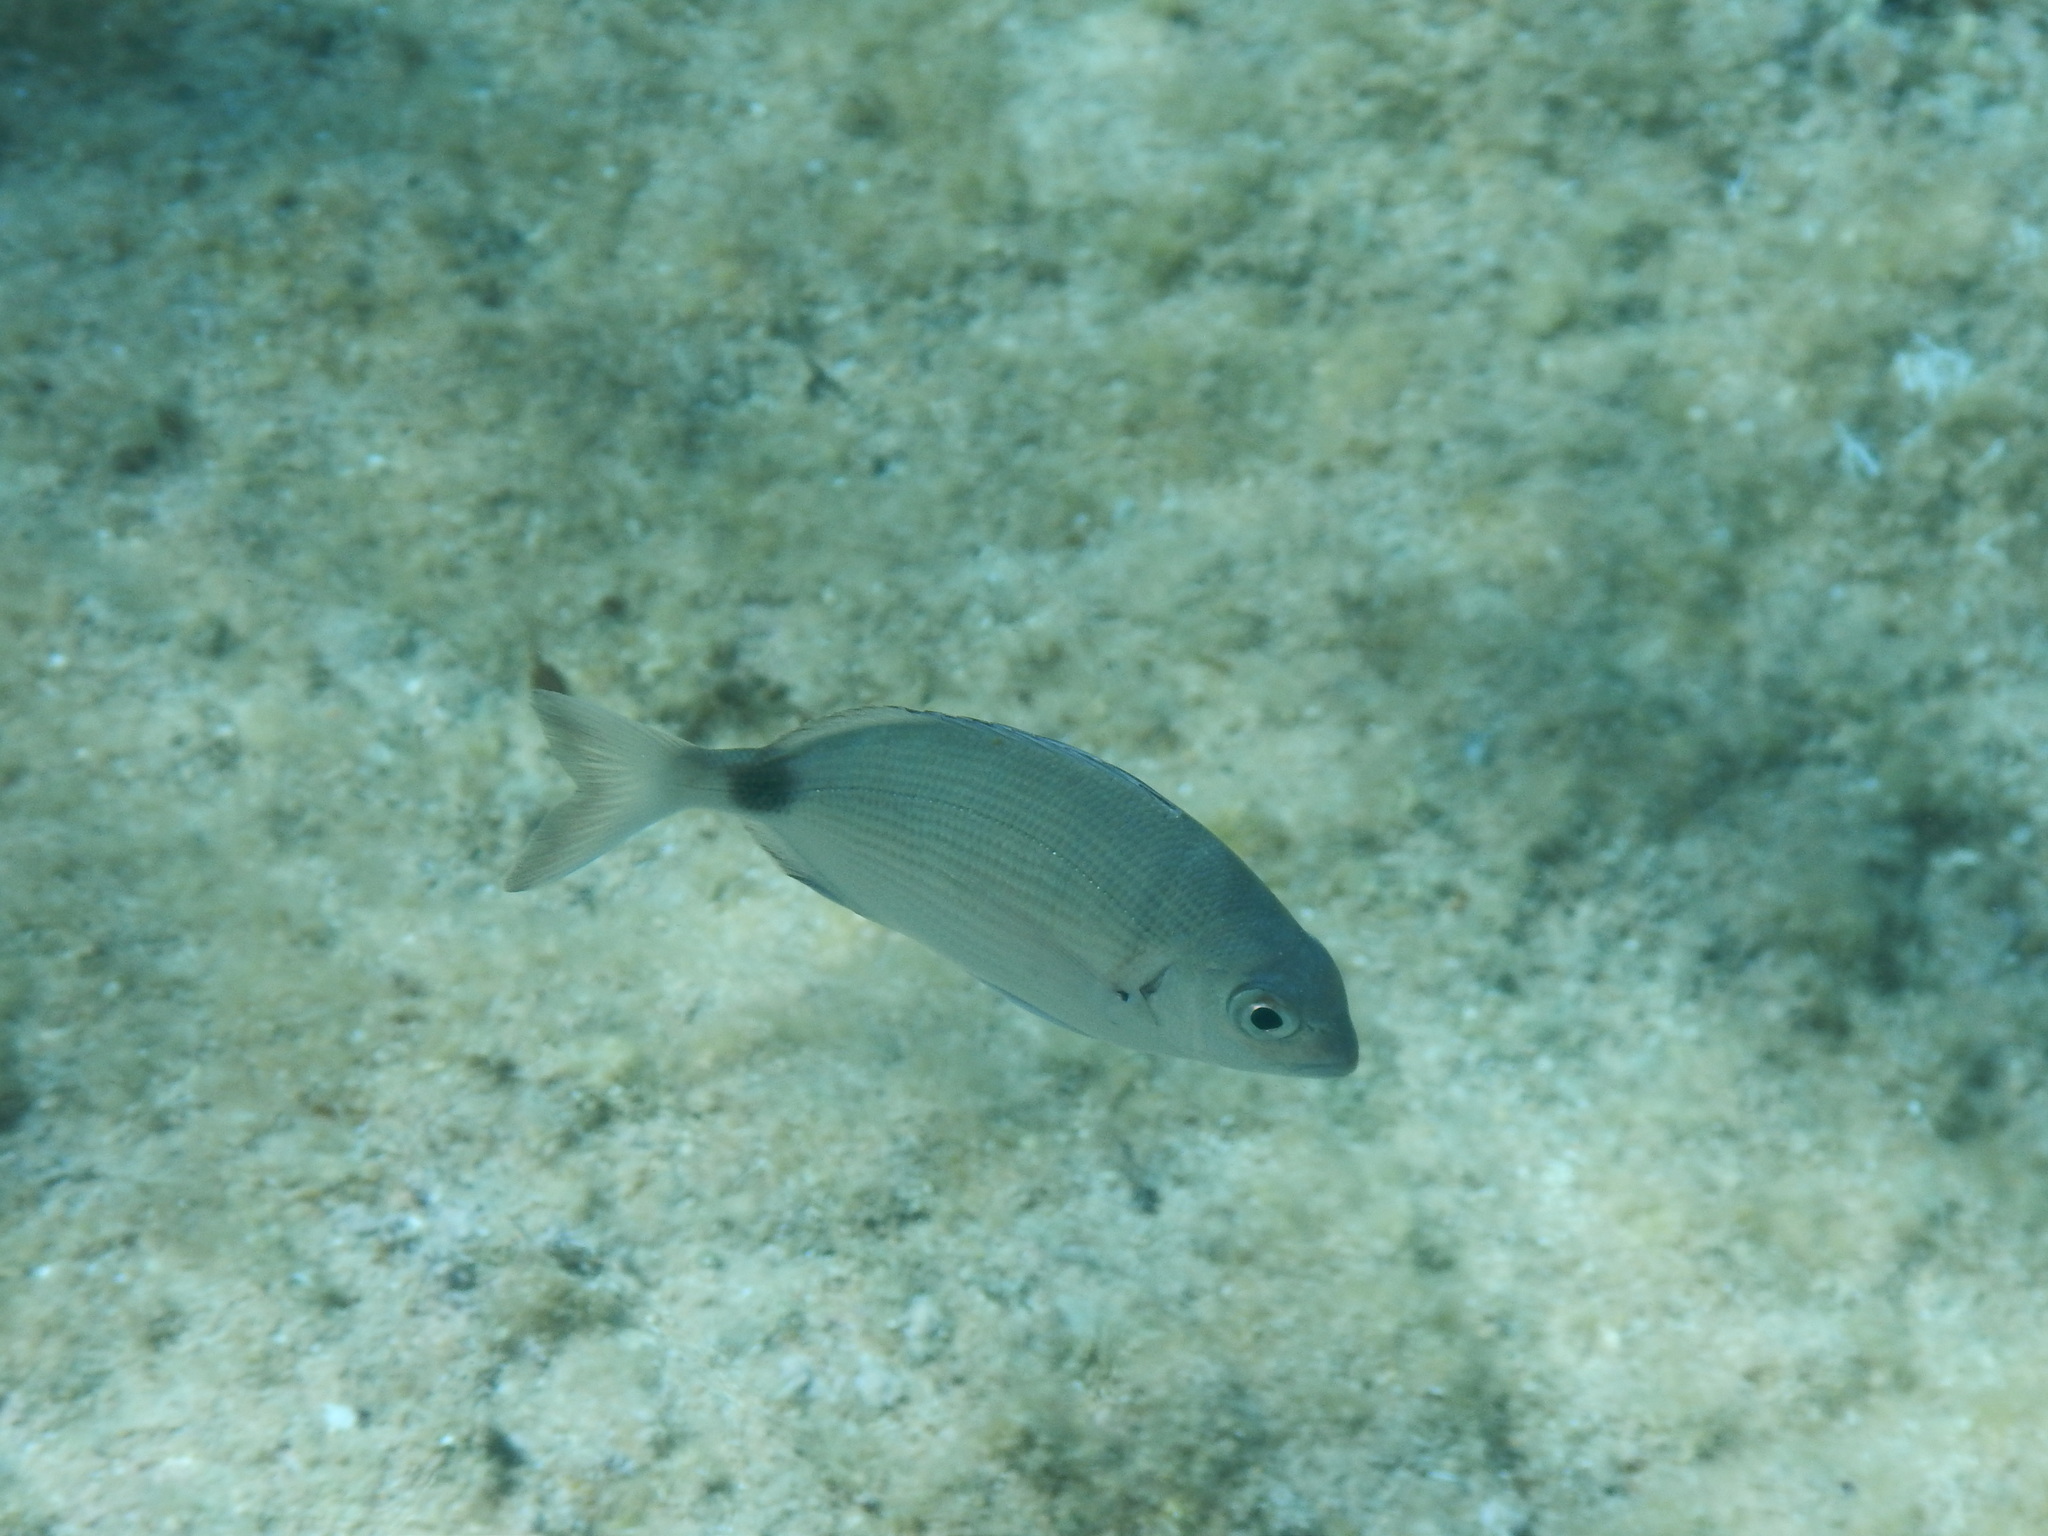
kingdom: Animalia
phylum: Chordata
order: Perciformes
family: Sparidae
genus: Diplodus
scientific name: Diplodus sargus
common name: White seabream
